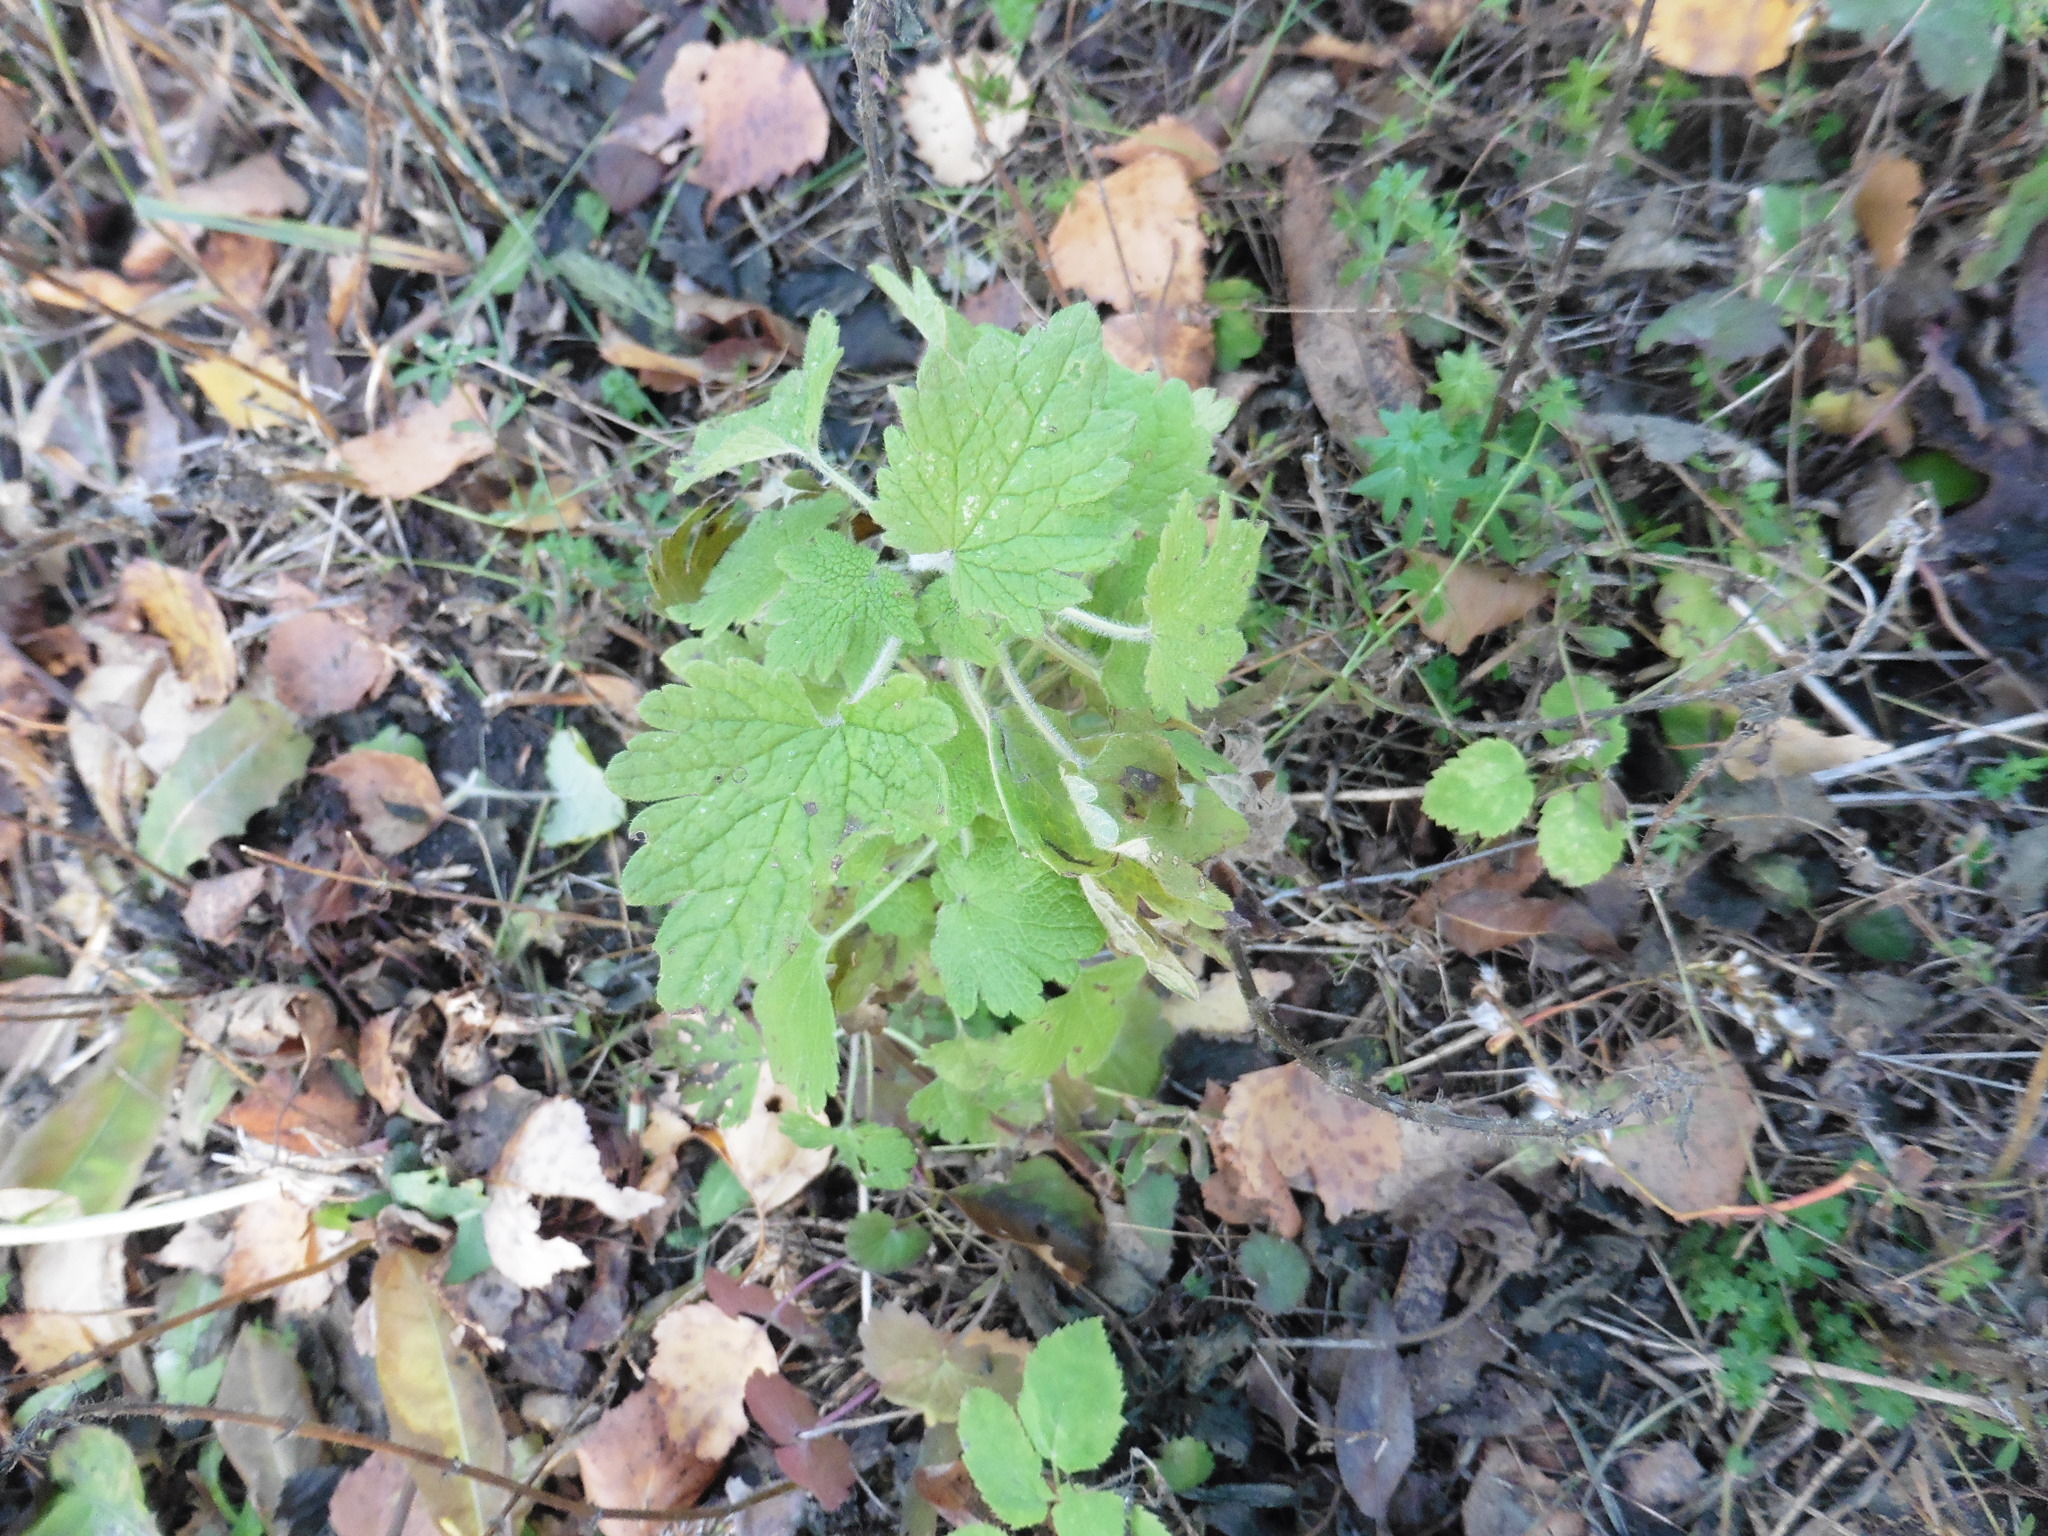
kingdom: Plantae
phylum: Tracheophyta
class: Magnoliopsida
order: Lamiales
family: Lamiaceae
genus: Leonurus
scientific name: Leonurus quinquelobatus
